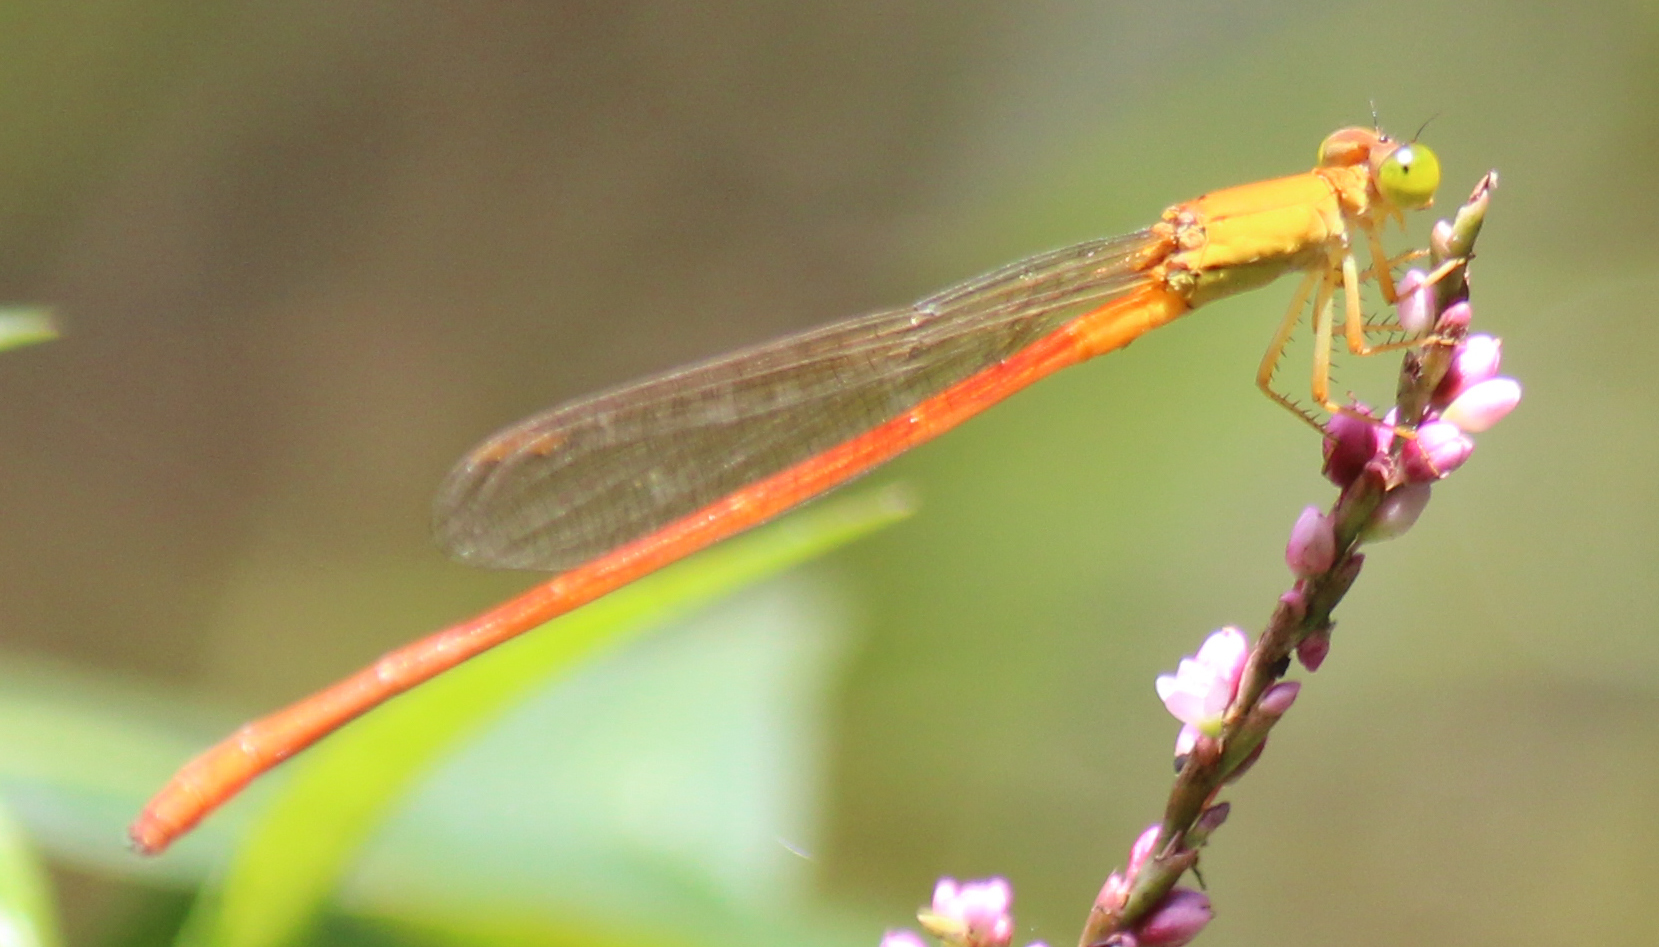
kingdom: Animalia
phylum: Arthropoda
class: Insecta
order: Odonata
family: Coenagrionidae
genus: Ceriagrion
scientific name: Ceriagrion glabrum
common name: Common pond damsel
